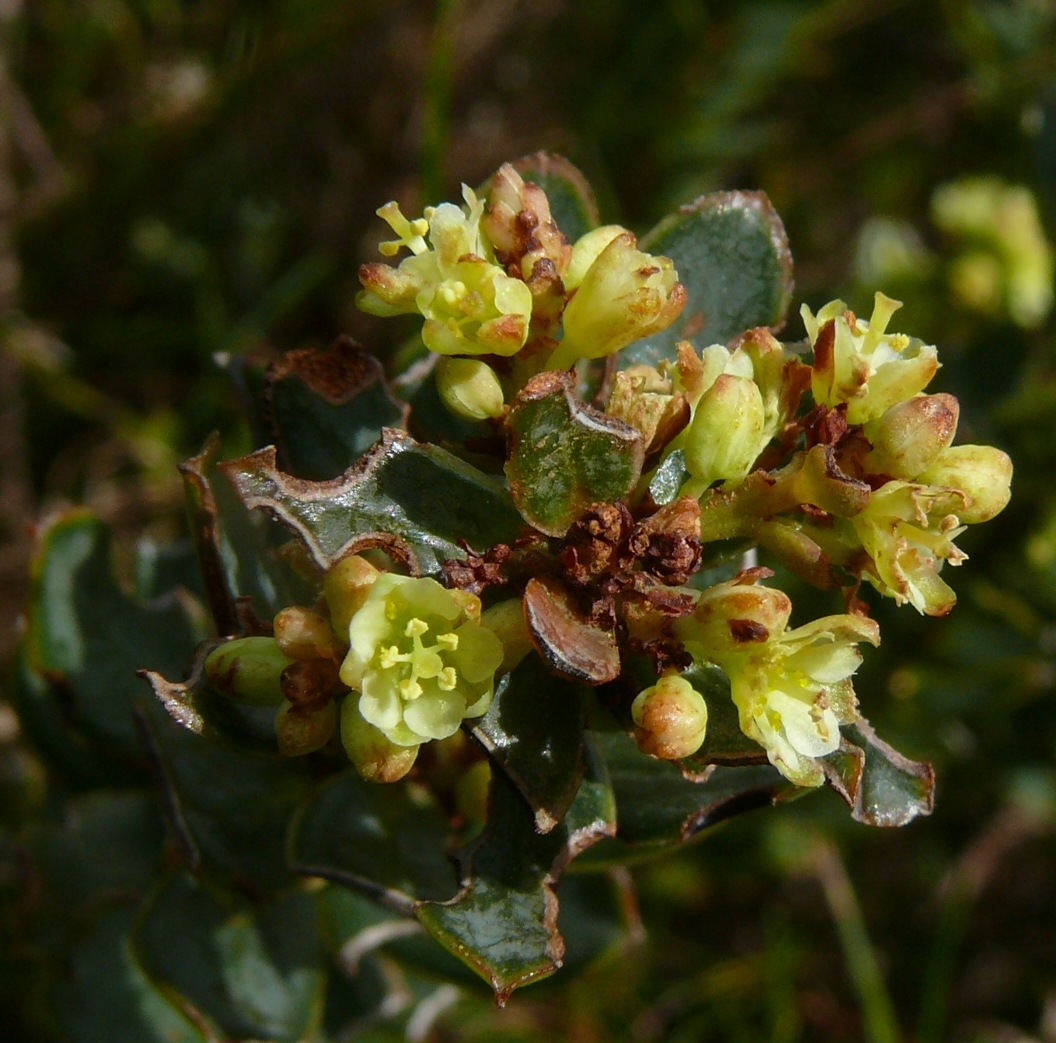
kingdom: Plantae
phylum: Tracheophyta
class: Magnoliopsida
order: Malpighiales
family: Peraceae
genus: Clutia
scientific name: Clutia alaternoides
